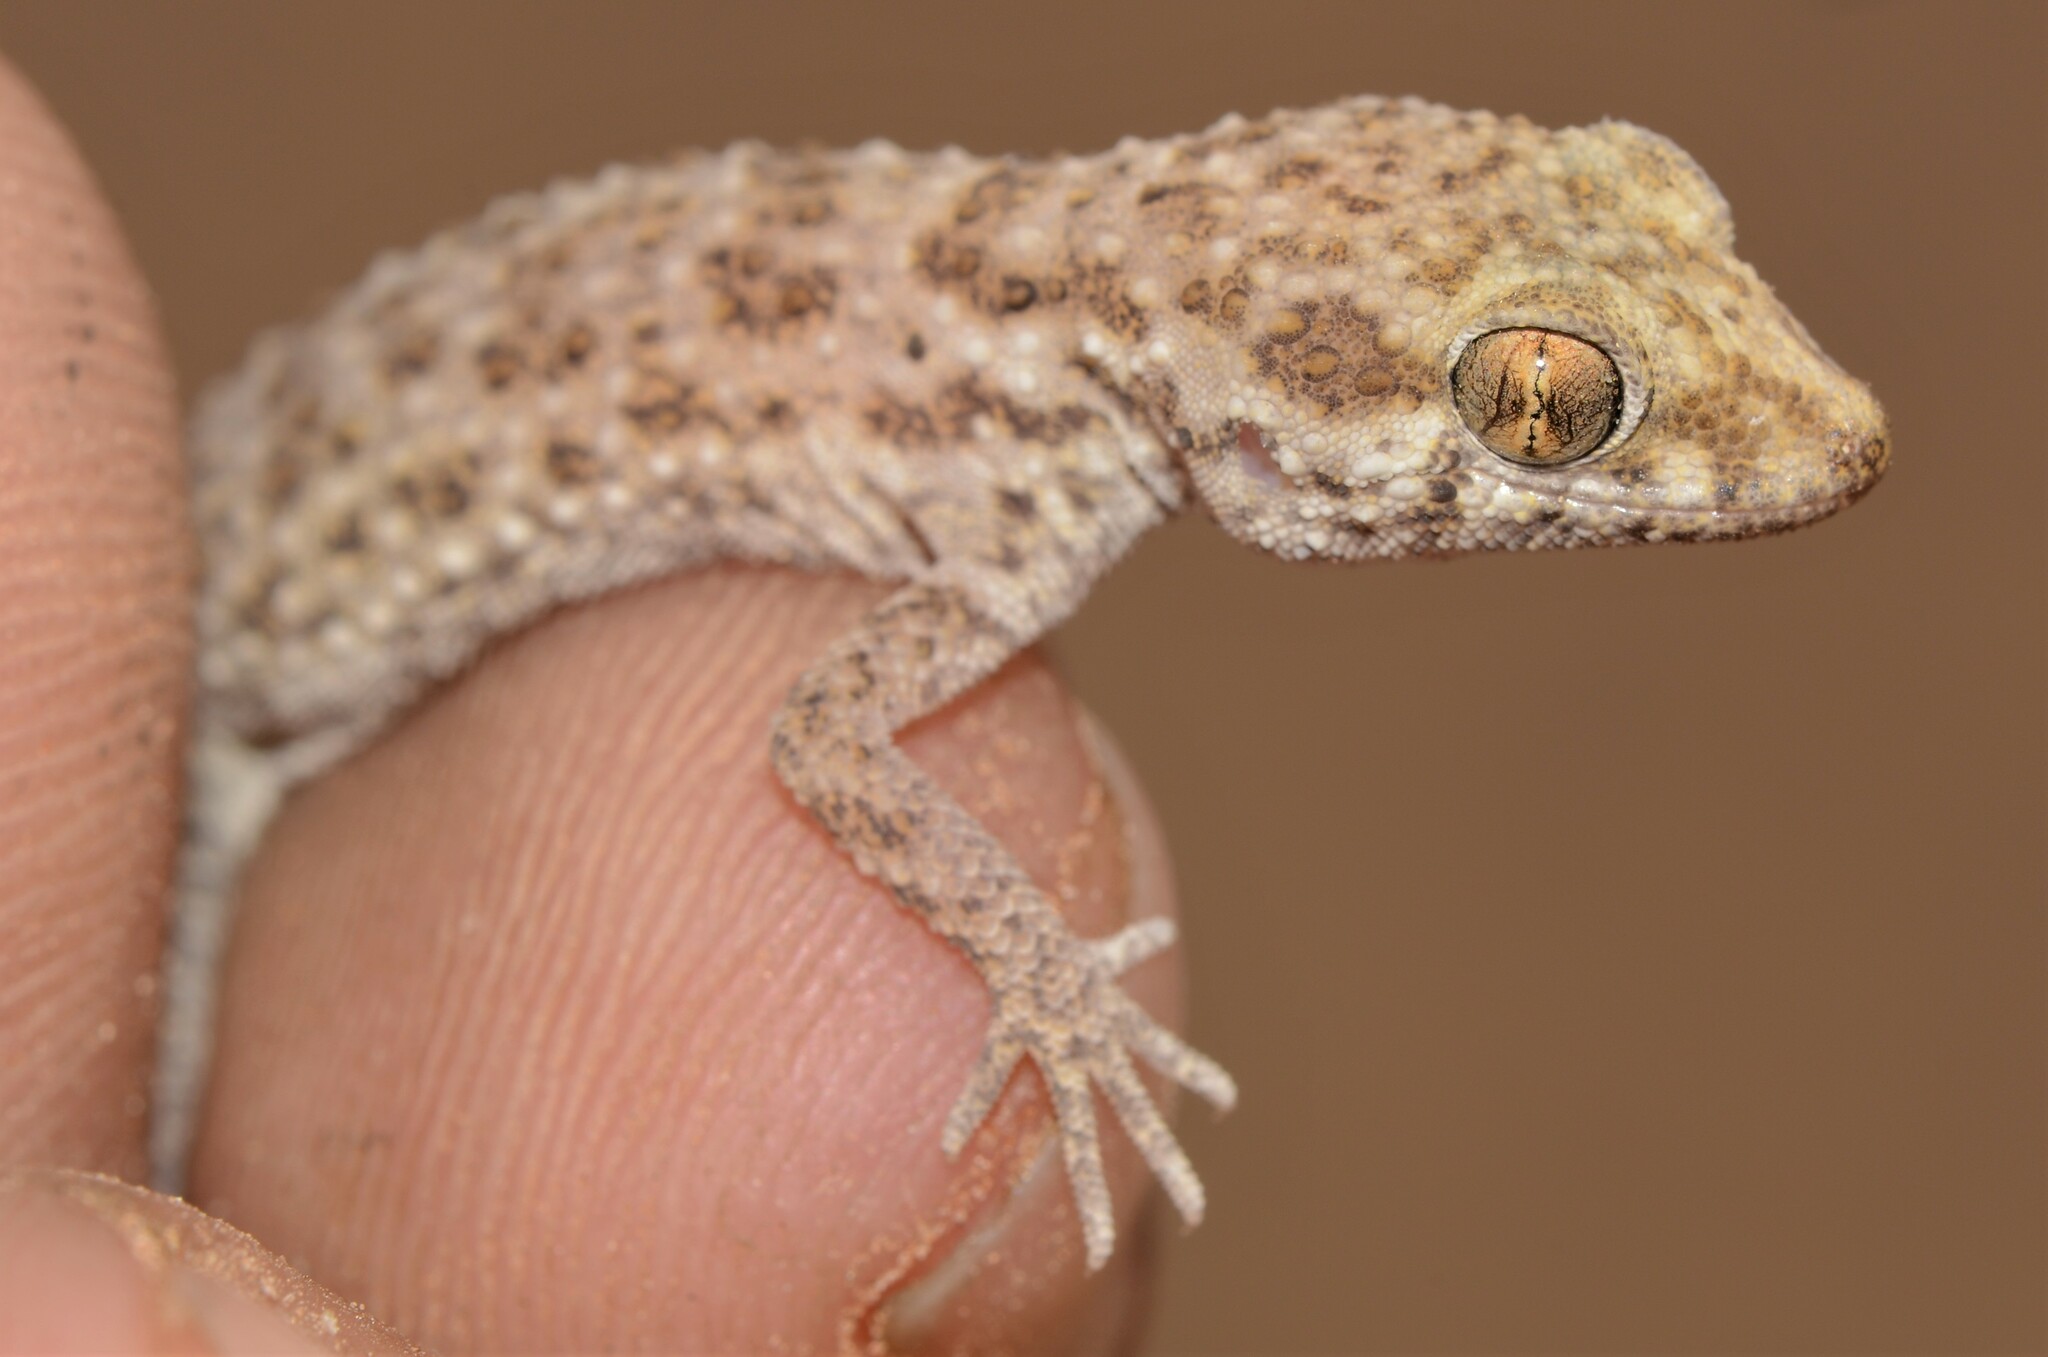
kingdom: Animalia
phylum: Chordata
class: Squamata
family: Gekkonidae
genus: Bunopus
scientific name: Bunopus tuberculatus
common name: Southern tuberculated gecko
